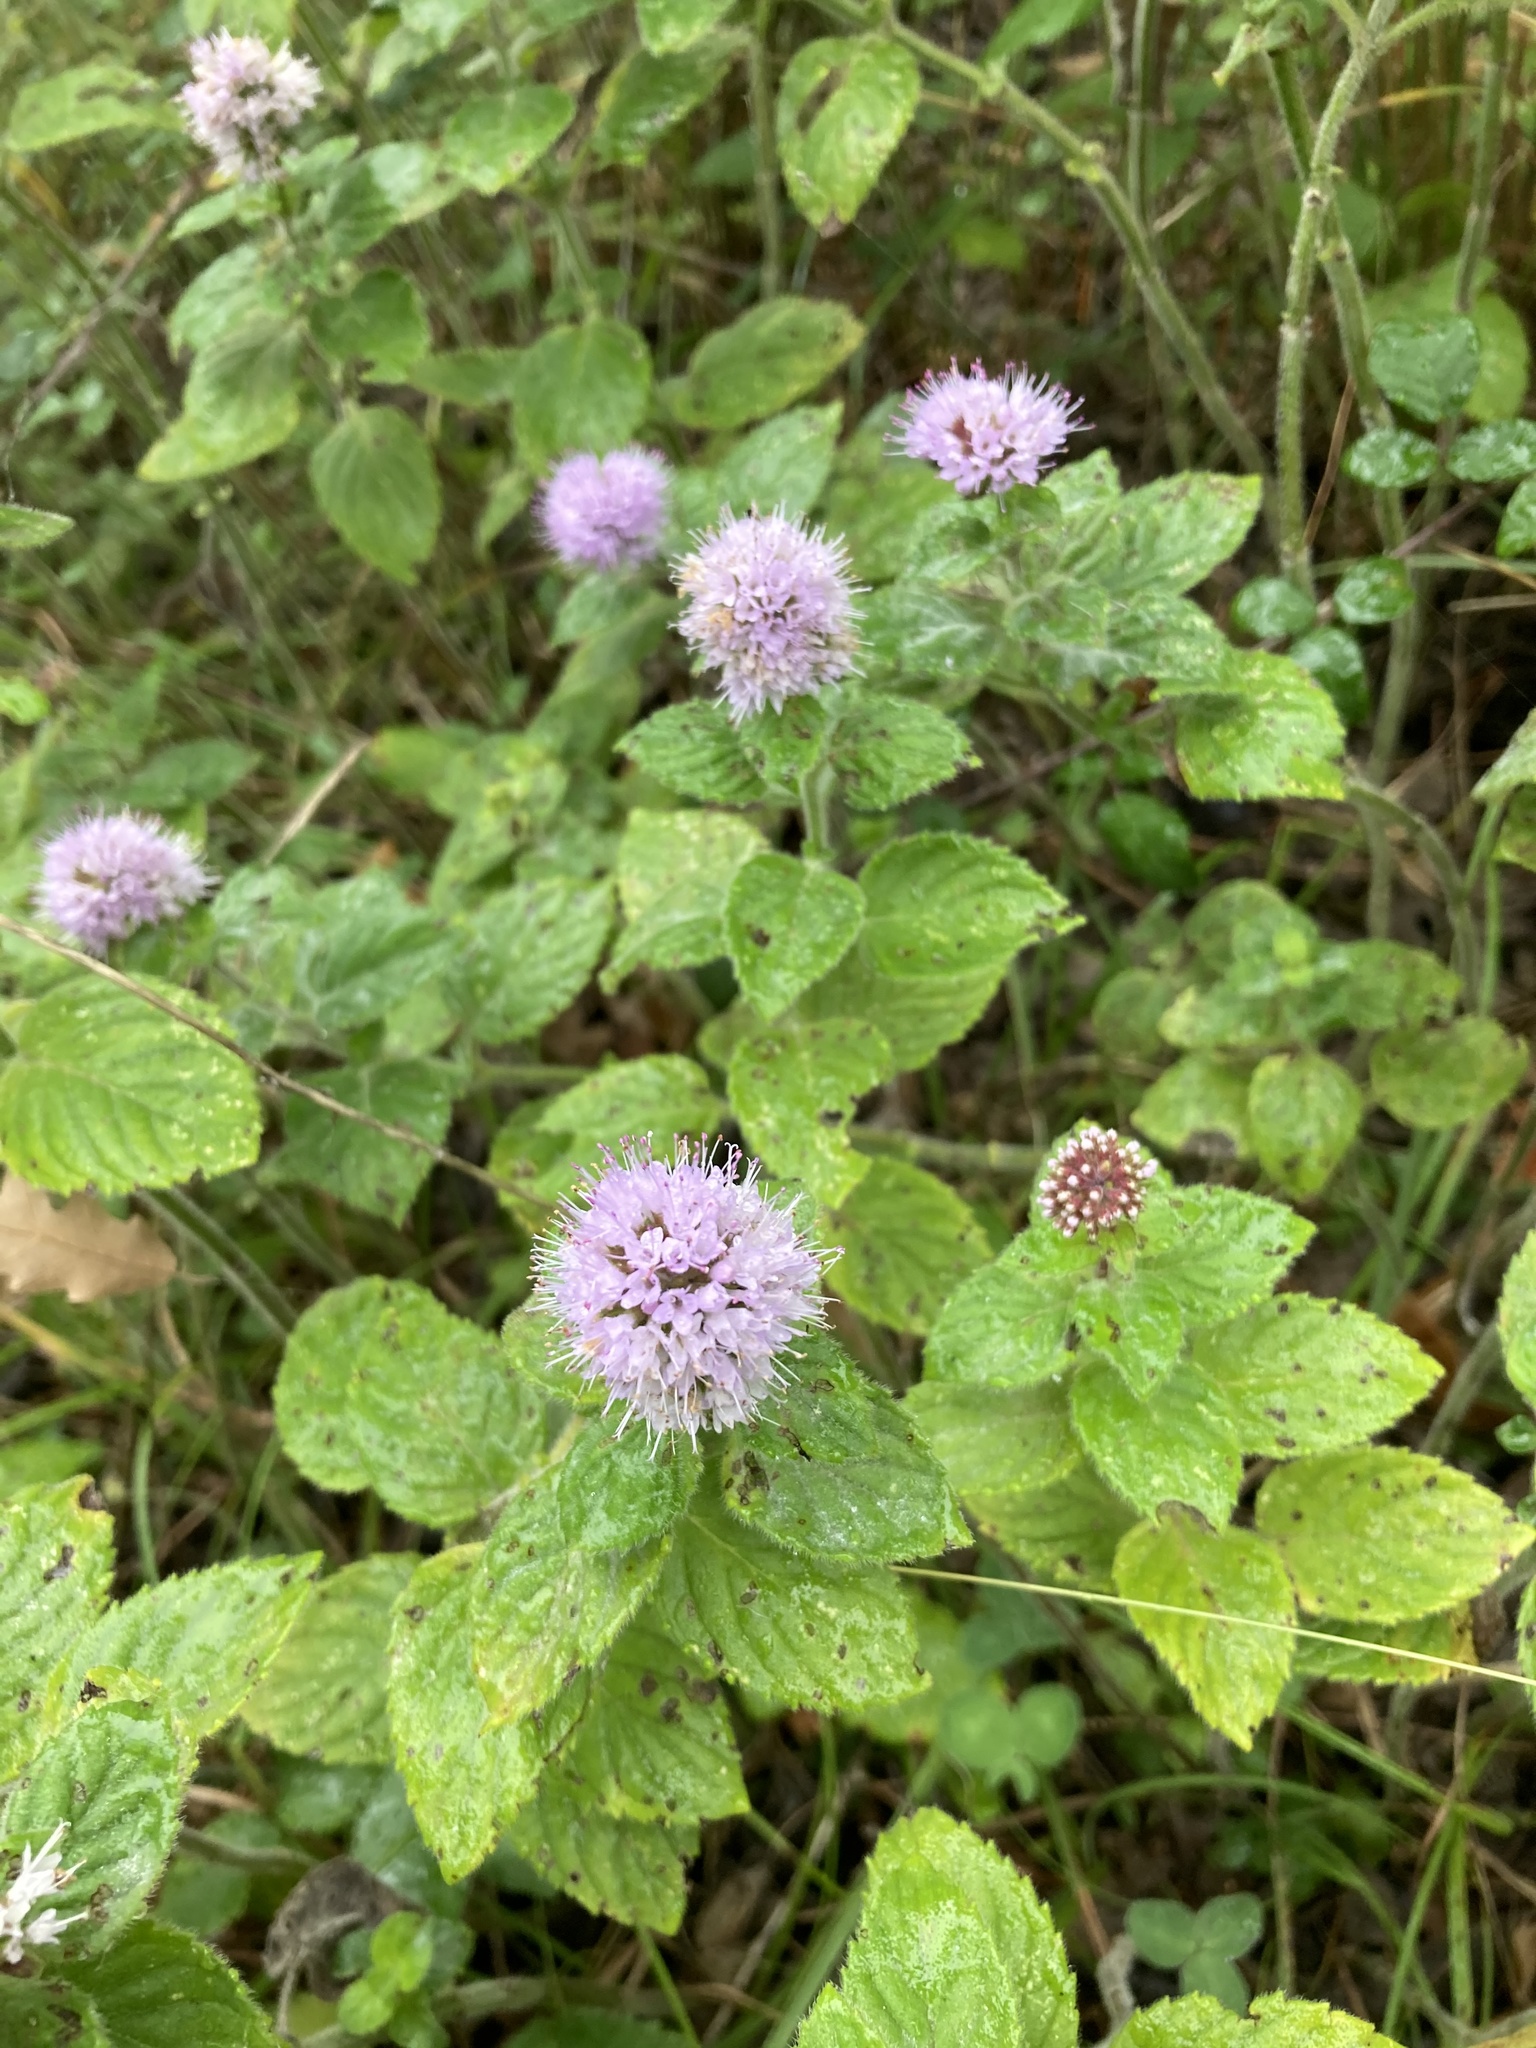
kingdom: Plantae
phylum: Tracheophyta
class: Magnoliopsida
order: Lamiales
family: Lamiaceae
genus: Mentha
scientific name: Mentha aquatica
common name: Water mint
